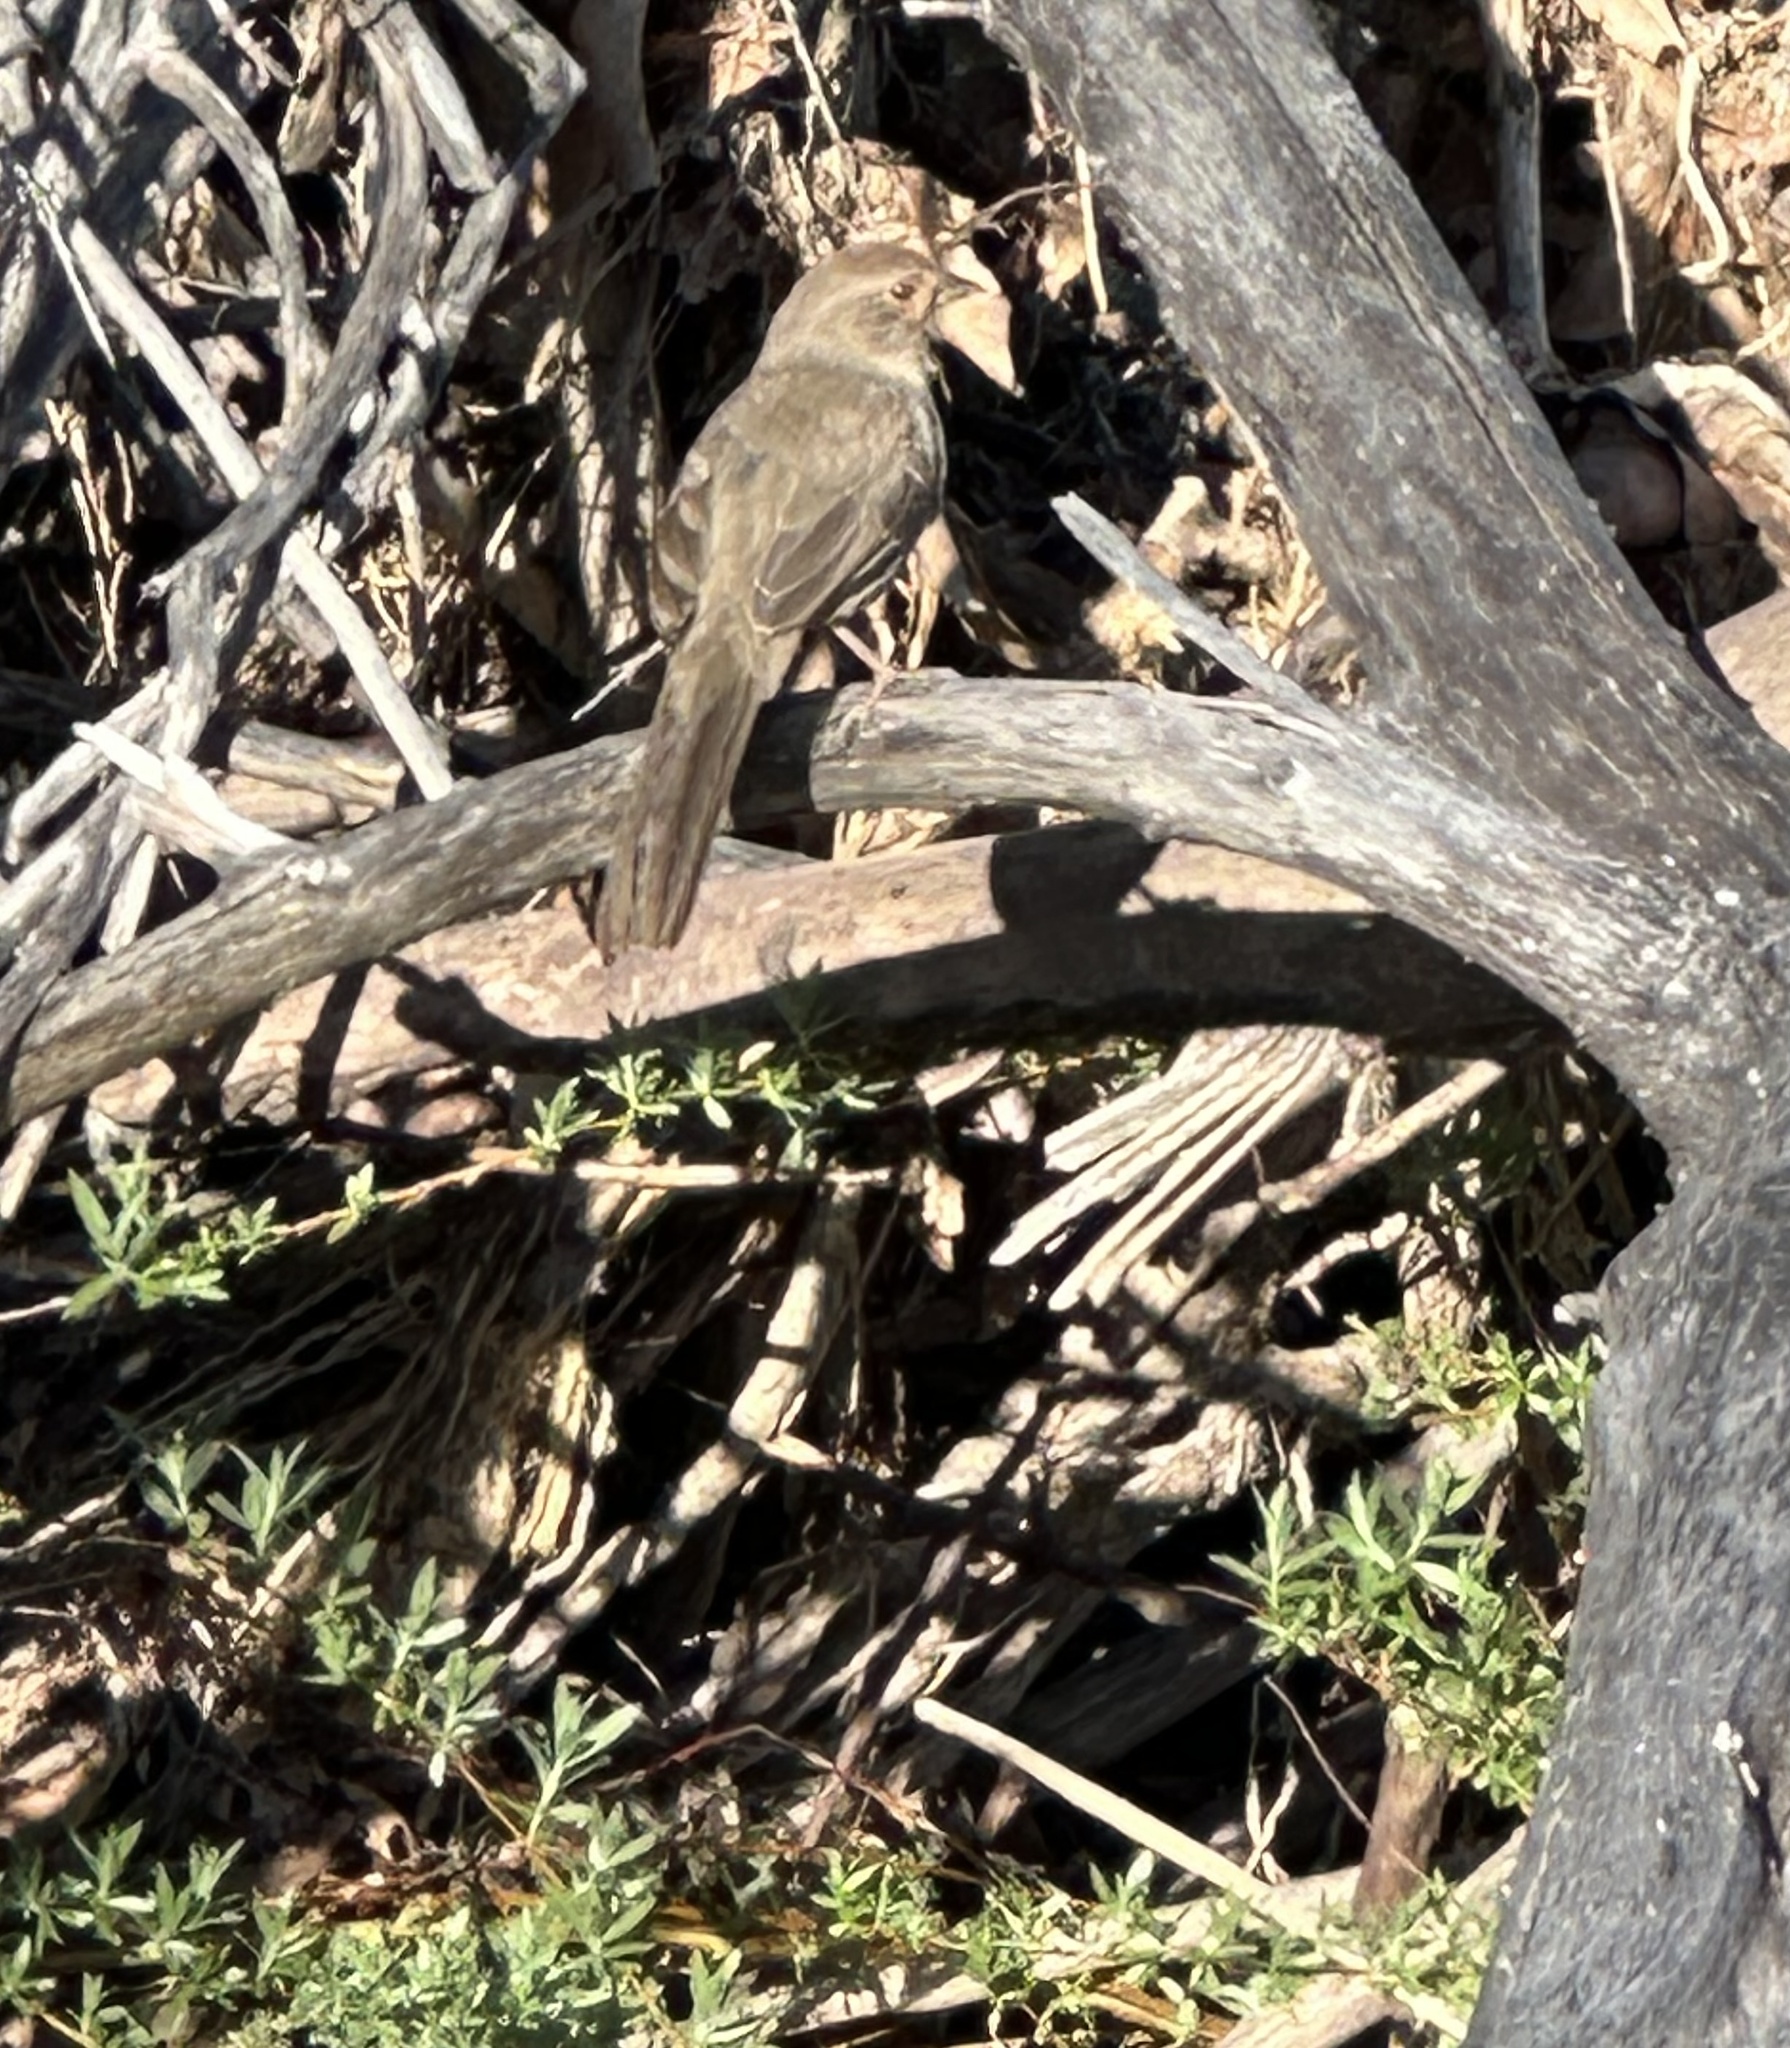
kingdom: Animalia
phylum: Chordata
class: Aves
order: Passeriformes
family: Passerellidae
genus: Melozone
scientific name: Melozone crissalis
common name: California towhee
